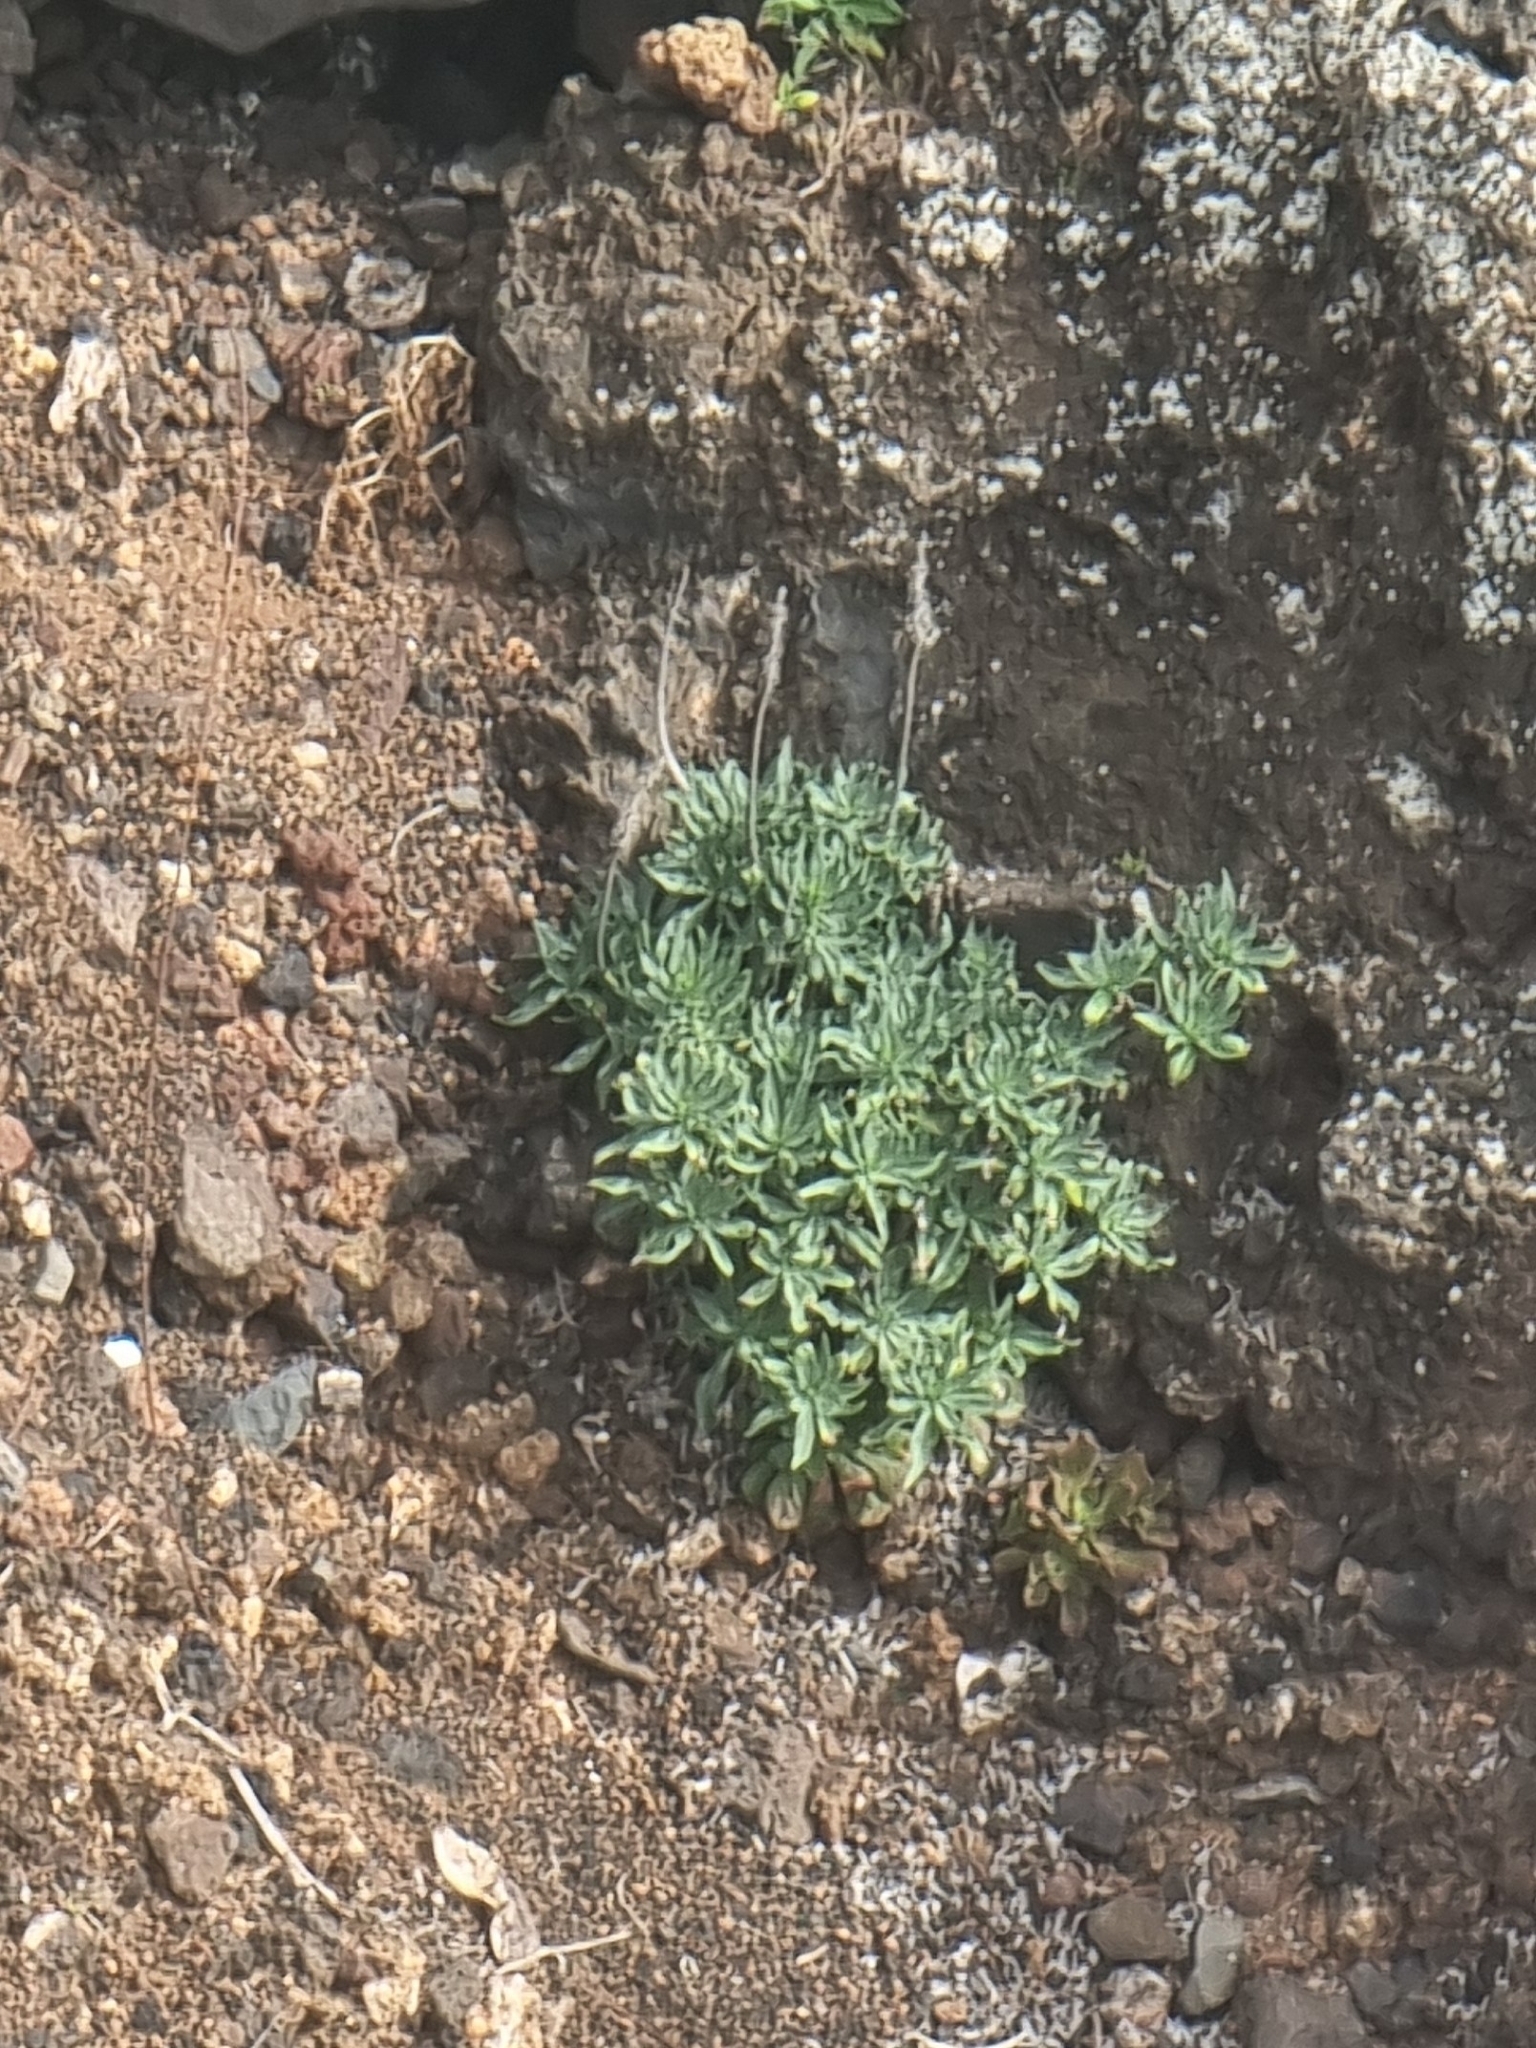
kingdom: Plantae
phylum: Tracheophyta
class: Magnoliopsida
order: Boraginales
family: Boraginaceae
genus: Echium
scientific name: Echium nervosum
